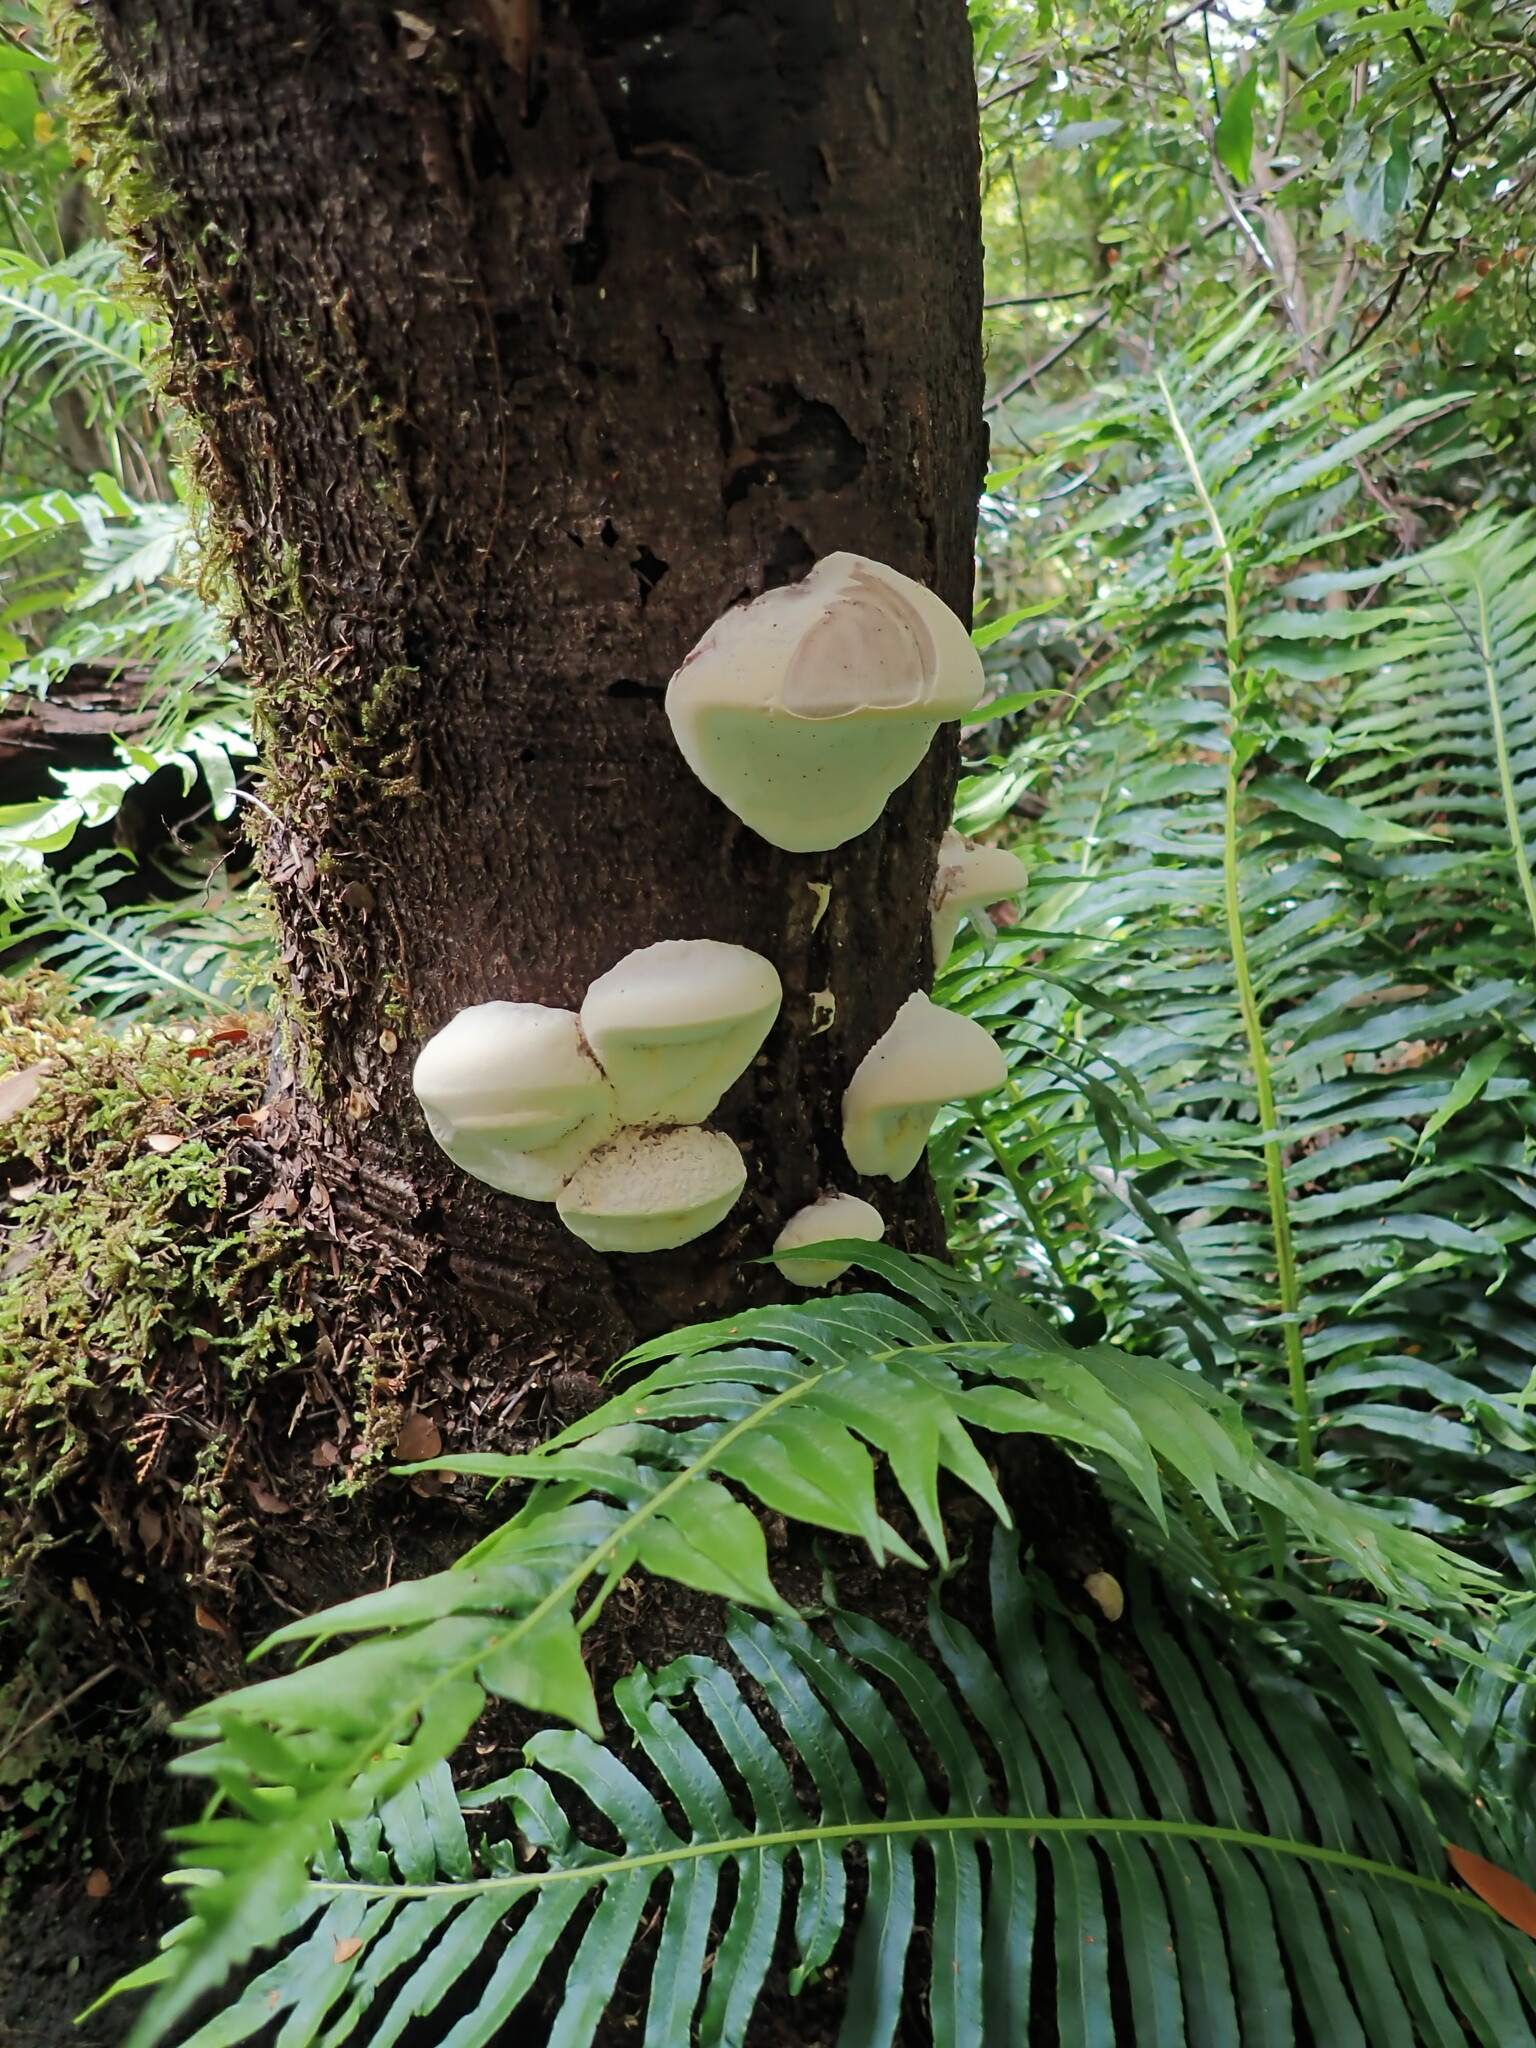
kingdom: Fungi
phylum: Basidiomycota
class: Agaricomycetes
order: Polyporales
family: Laetiporaceae
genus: Laetiporus
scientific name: Laetiporus portentosus
